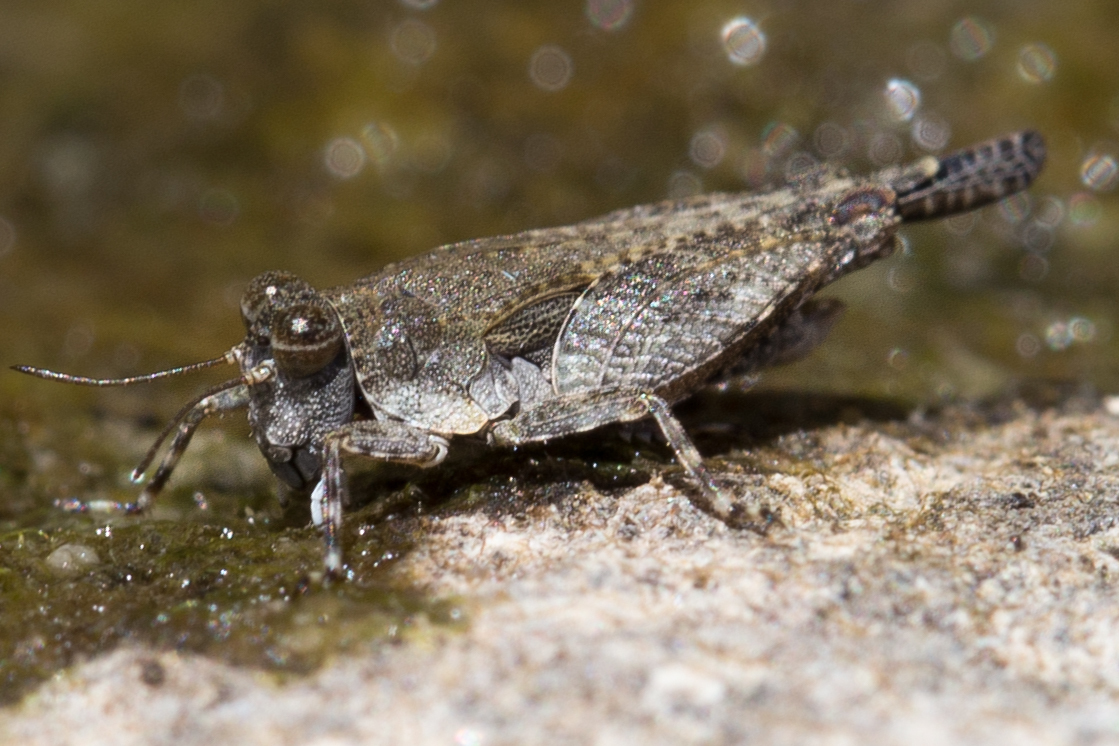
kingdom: Animalia
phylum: Arthropoda
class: Insecta
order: Orthoptera
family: Tetrigidae
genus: Paratettix
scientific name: Paratettix aztecus
